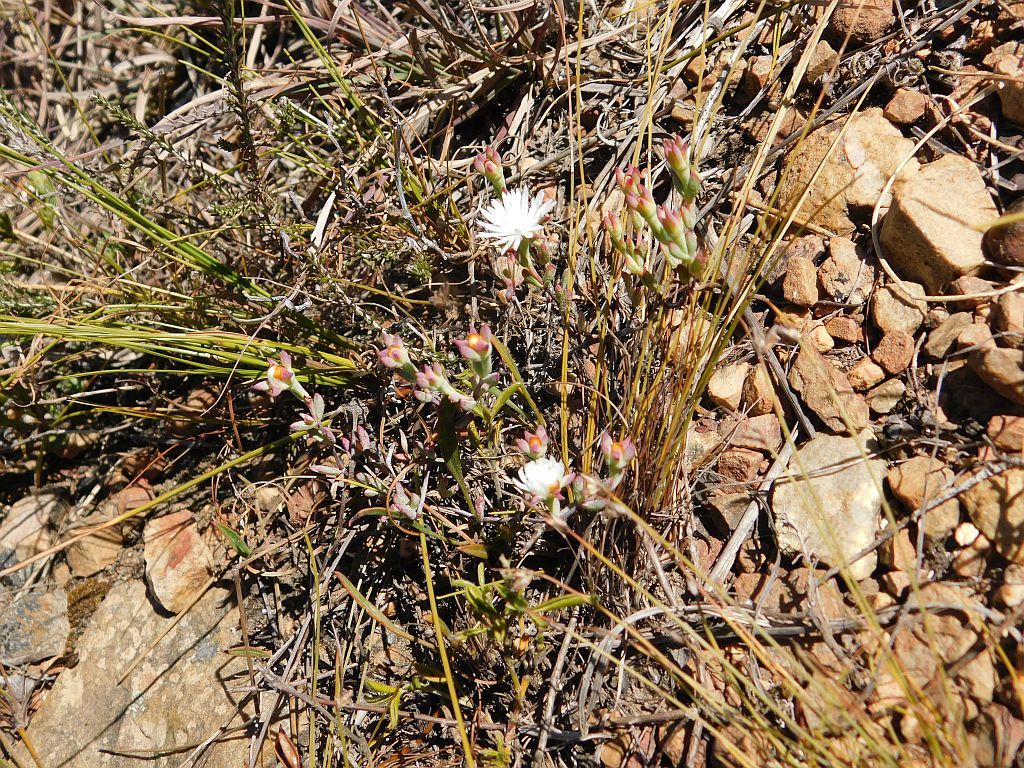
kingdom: Plantae
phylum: Tracheophyta
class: Magnoliopsida
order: Caryophyllales
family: Aizoaceae
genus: Lampranthus
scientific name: Lampranthus falcatus
